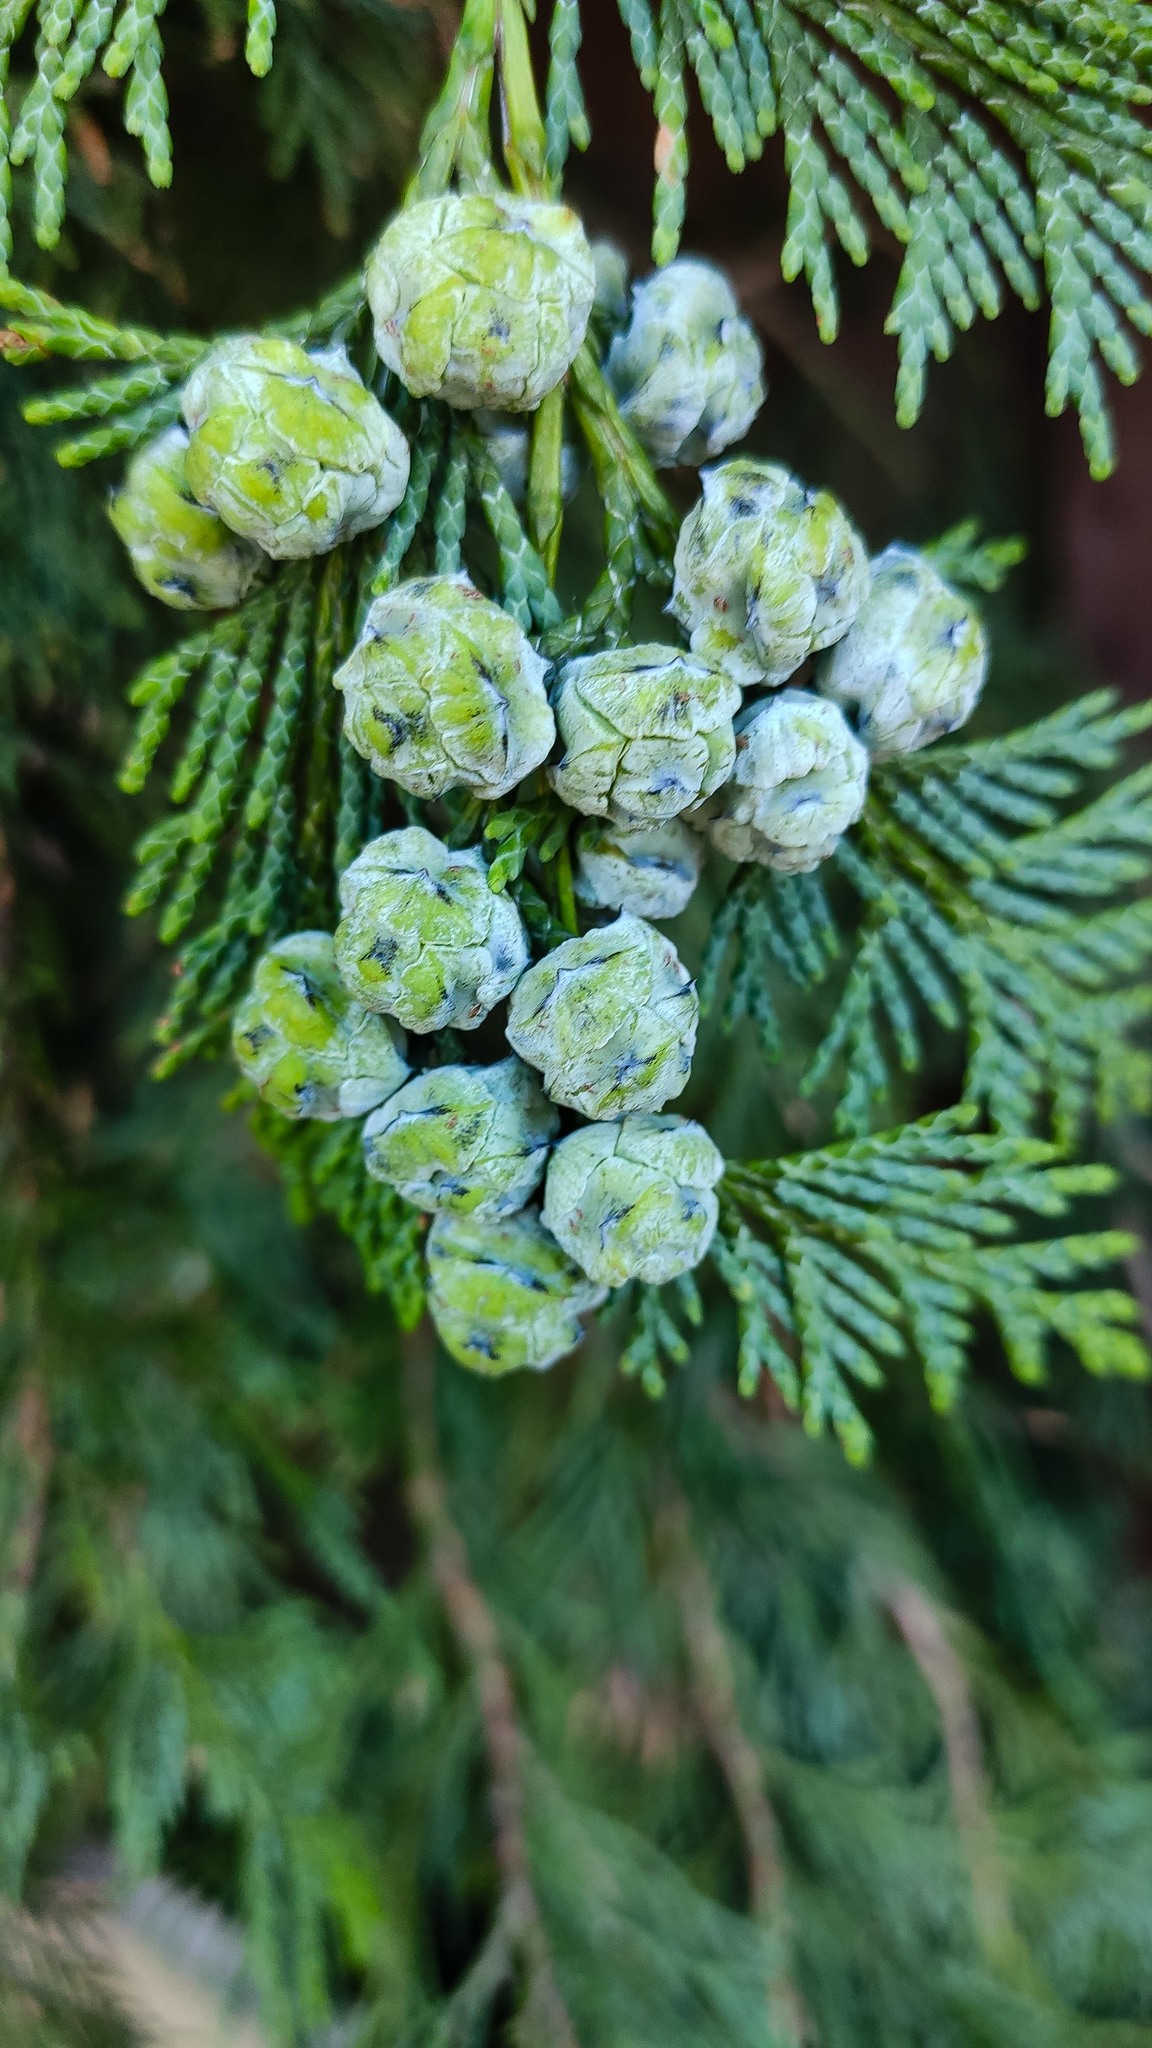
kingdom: Plantae
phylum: Tracheophyta
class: Pinopsida
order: Pinales
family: Cupressaceae
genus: Chamaecyparis
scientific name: Chamaecyparis lawsoniana
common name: Lawson's cypress
